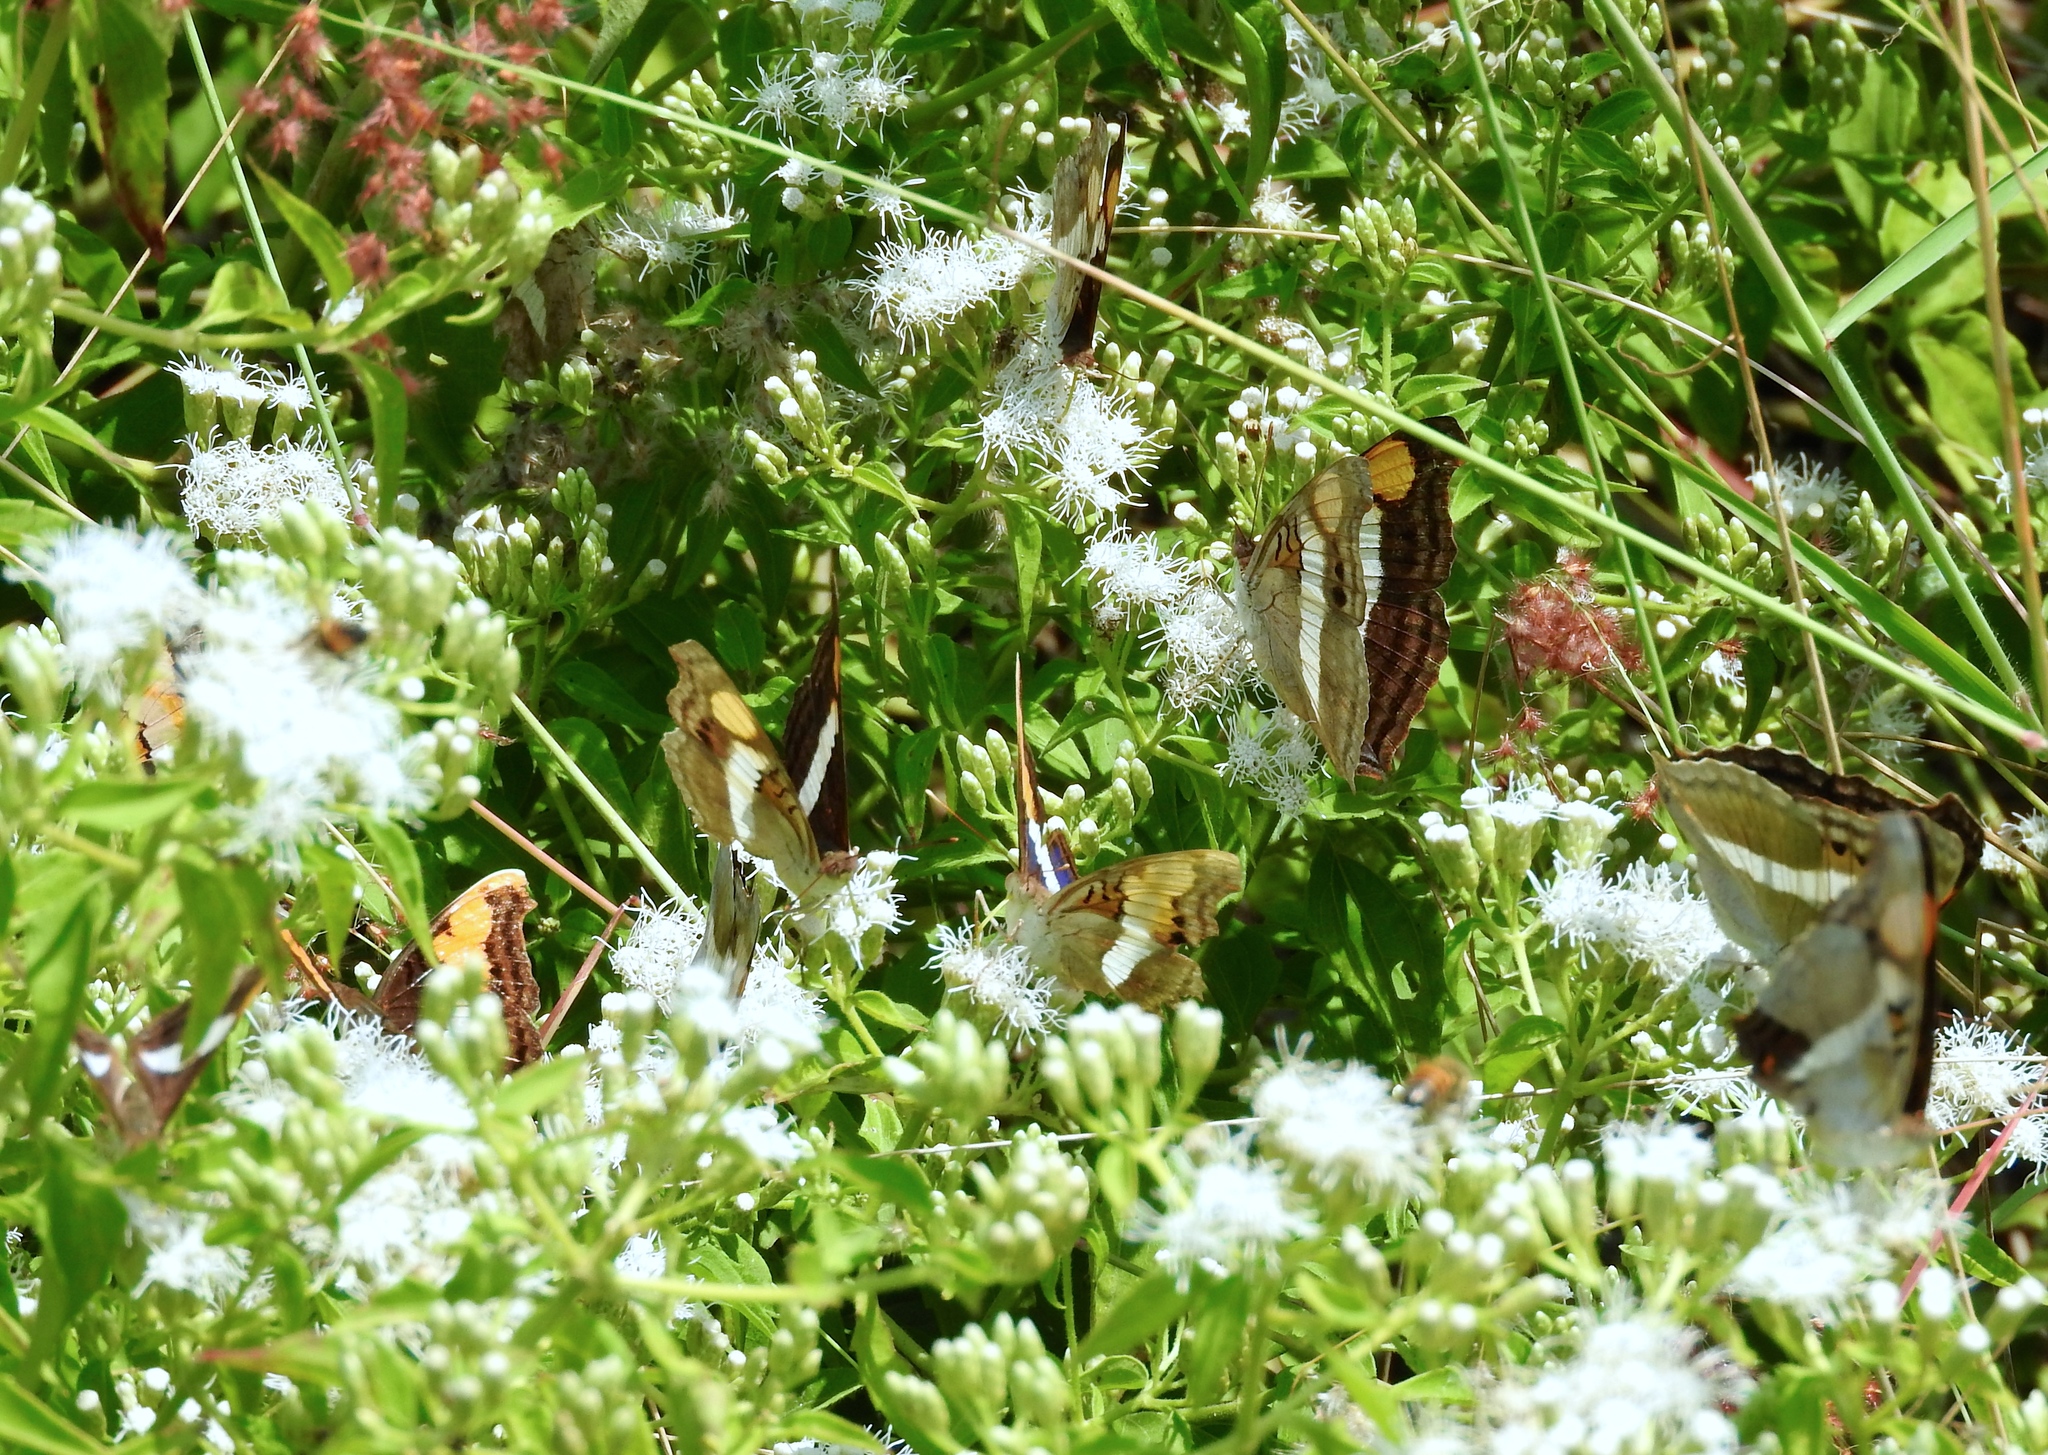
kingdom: Animalia
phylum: Arthropoda
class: Insecta
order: Lepidoptera
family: Nymphalidae
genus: Doxocopa
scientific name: Doxocopa
